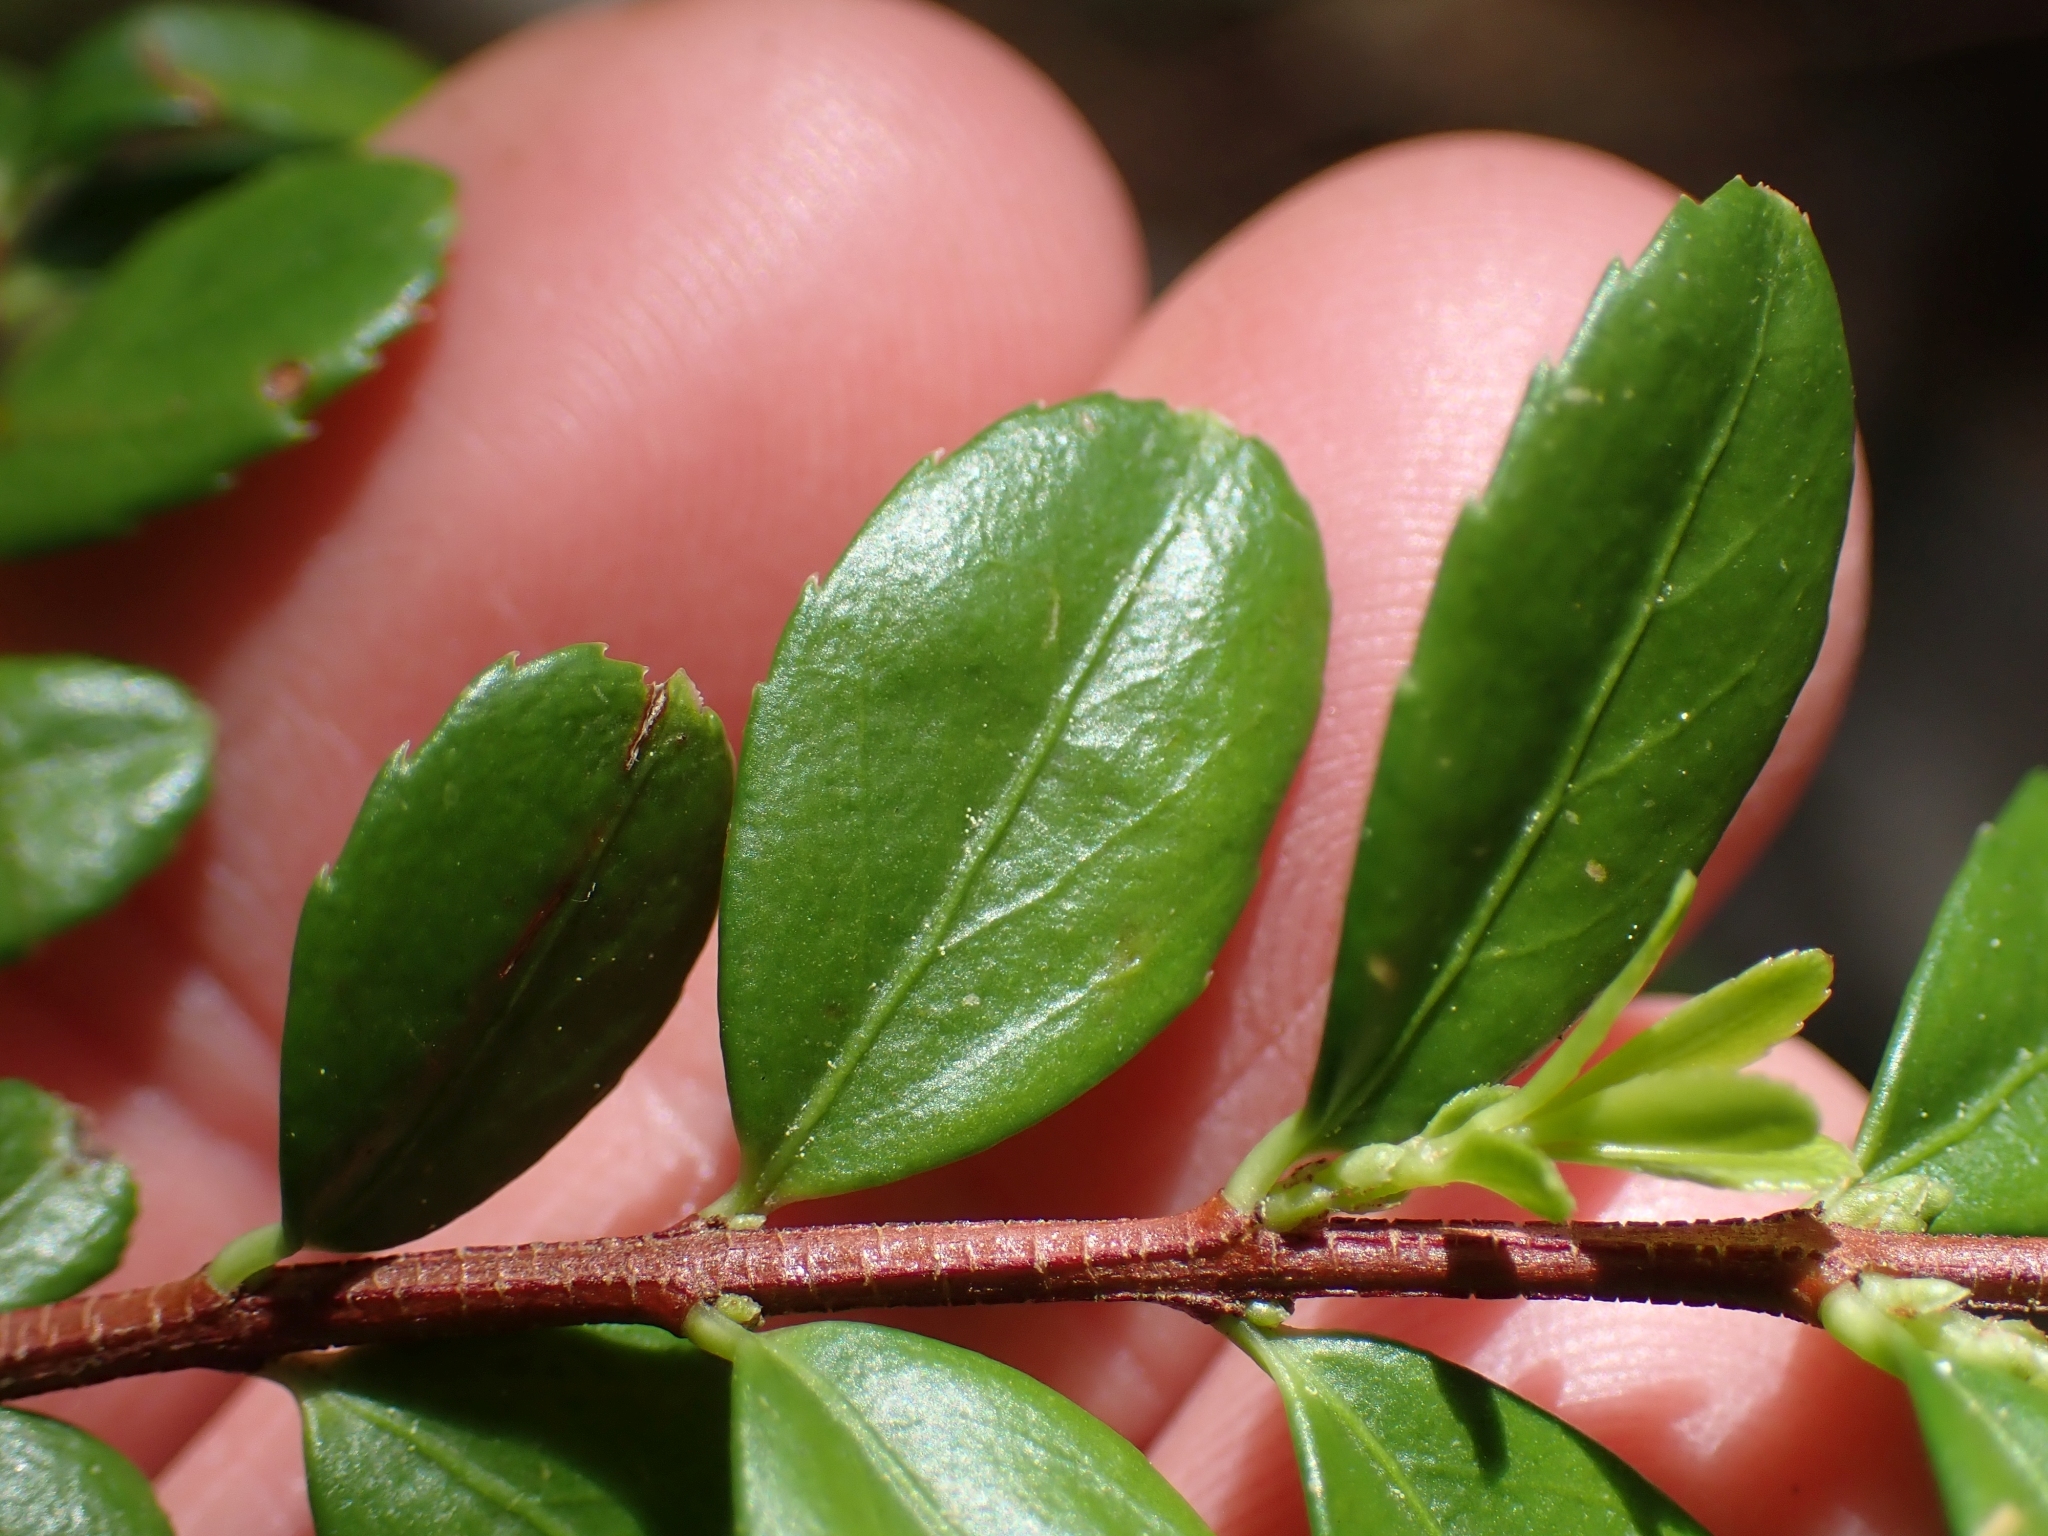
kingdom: Plantae
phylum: Tracheophyta
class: Magnoliopsida
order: Celastrales
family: Celastraceae
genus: Paxistima
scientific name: Paxistima myrsinites
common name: Mountain-lover
